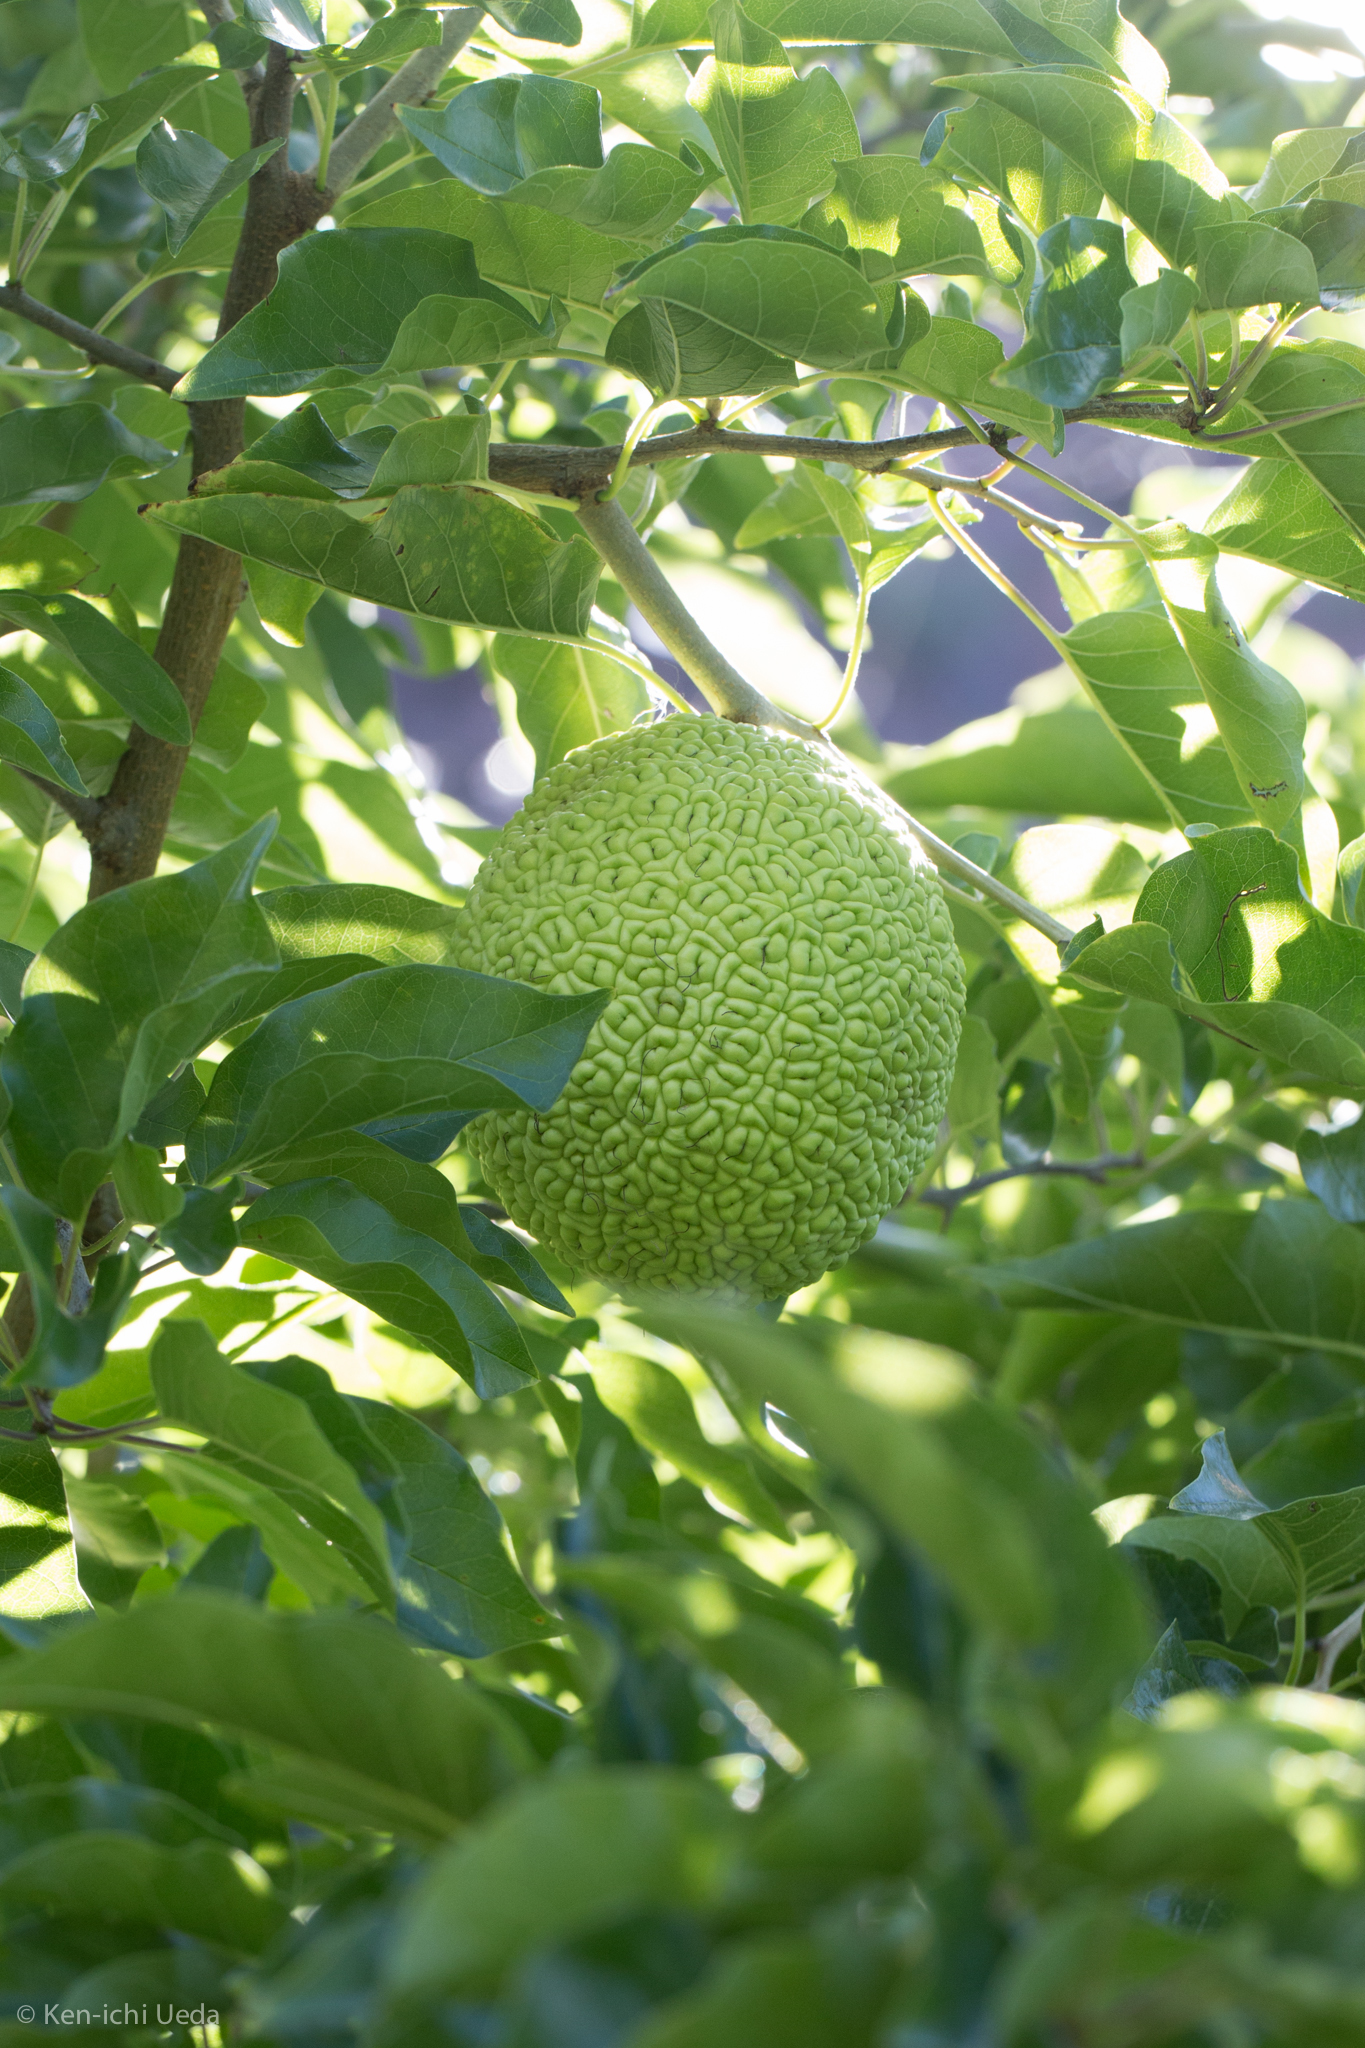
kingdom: Plantae
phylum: Tracheophyta
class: Magnoliopsida
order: Rosales
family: Moraceae
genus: Maclura
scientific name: Maclura pomifera
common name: Osage-orange
